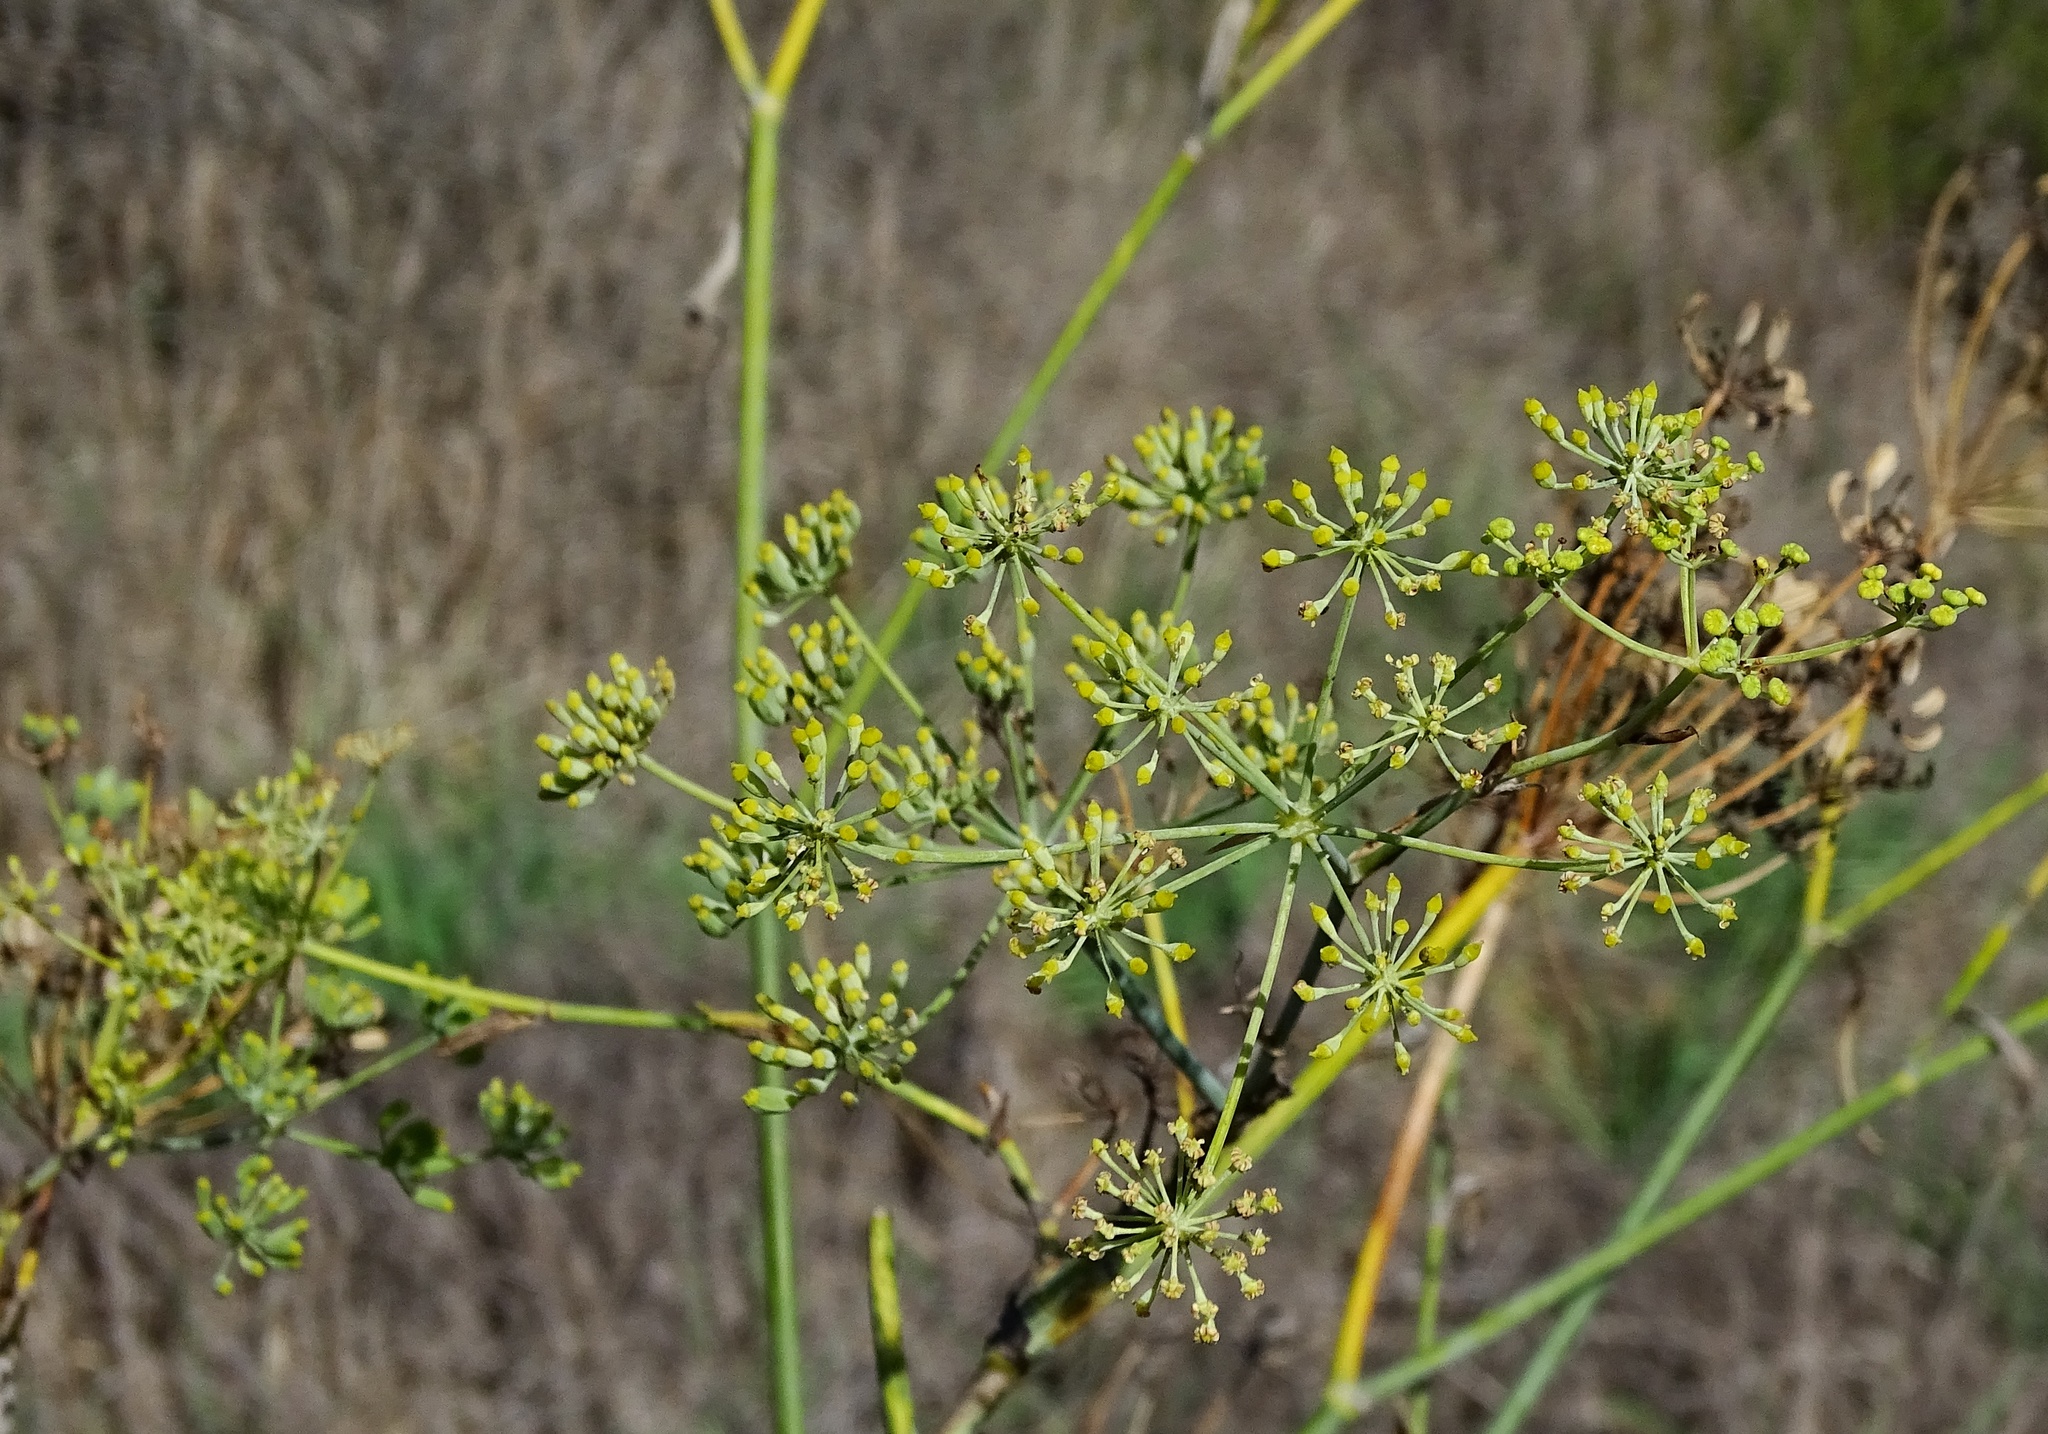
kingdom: Plantae
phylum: Tracheophyta
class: Magnoliopsida
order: Apiales
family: Apiaceae
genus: Foeniculum
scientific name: Foeniculum vulgare
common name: Fennel
